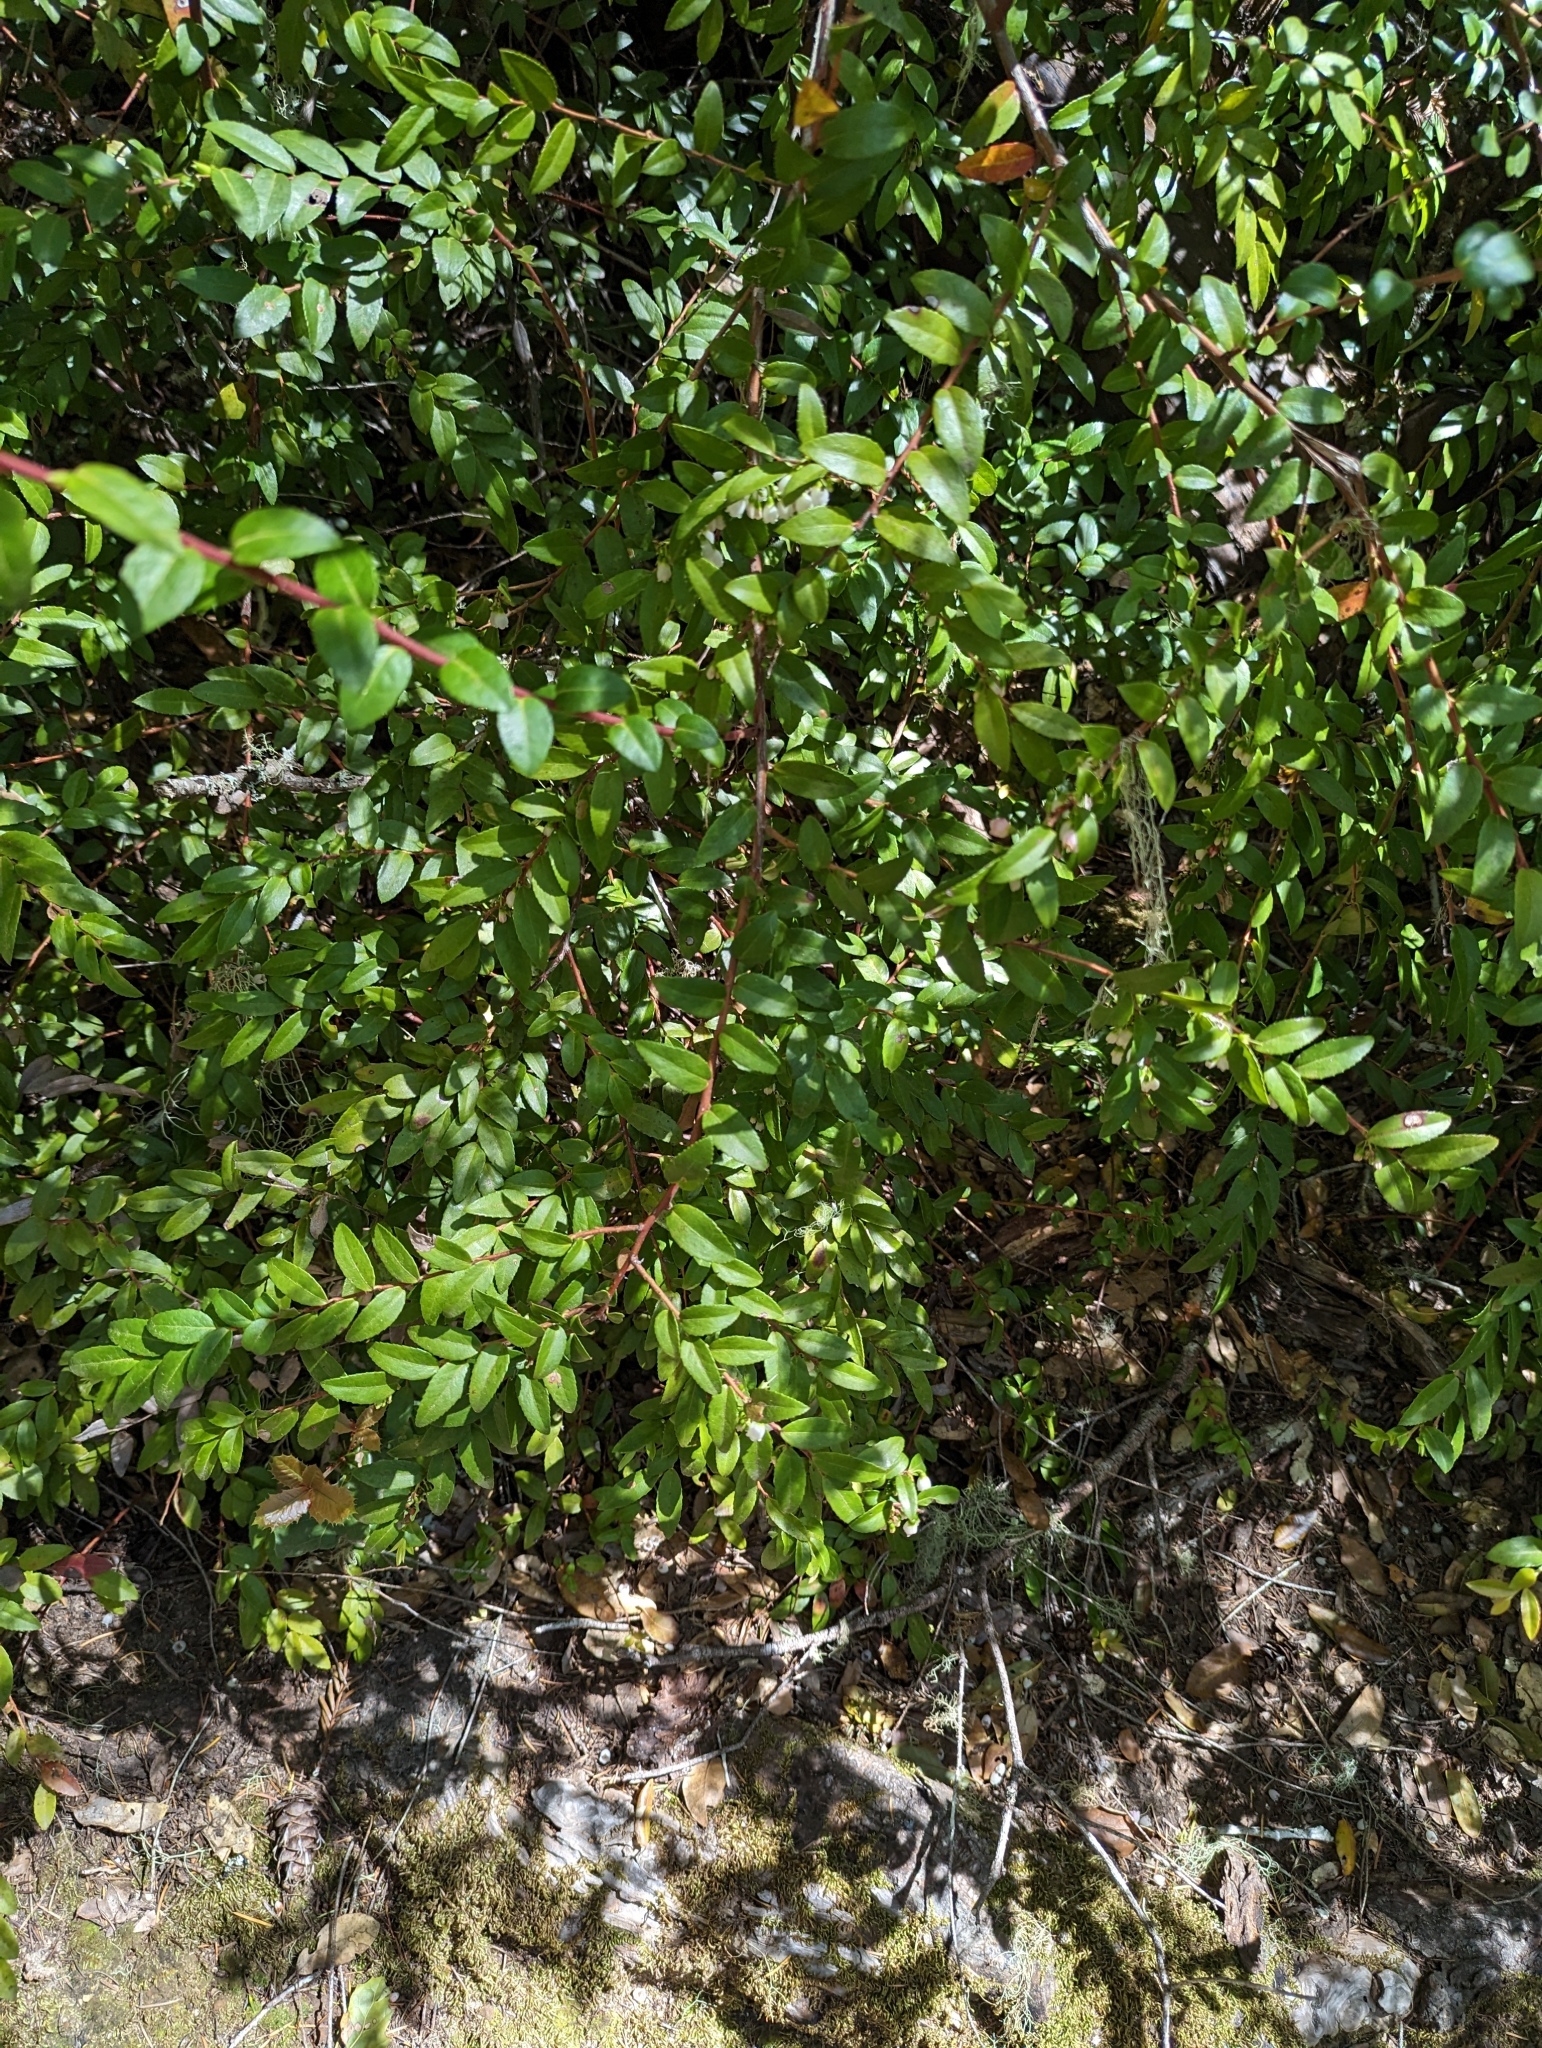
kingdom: Plantae
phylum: Tracheophyta
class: Magnoliopsida
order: Ericales
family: Ericaceae
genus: Vaccinium
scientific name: Vaccinium ovatum
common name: California-huckleberry
